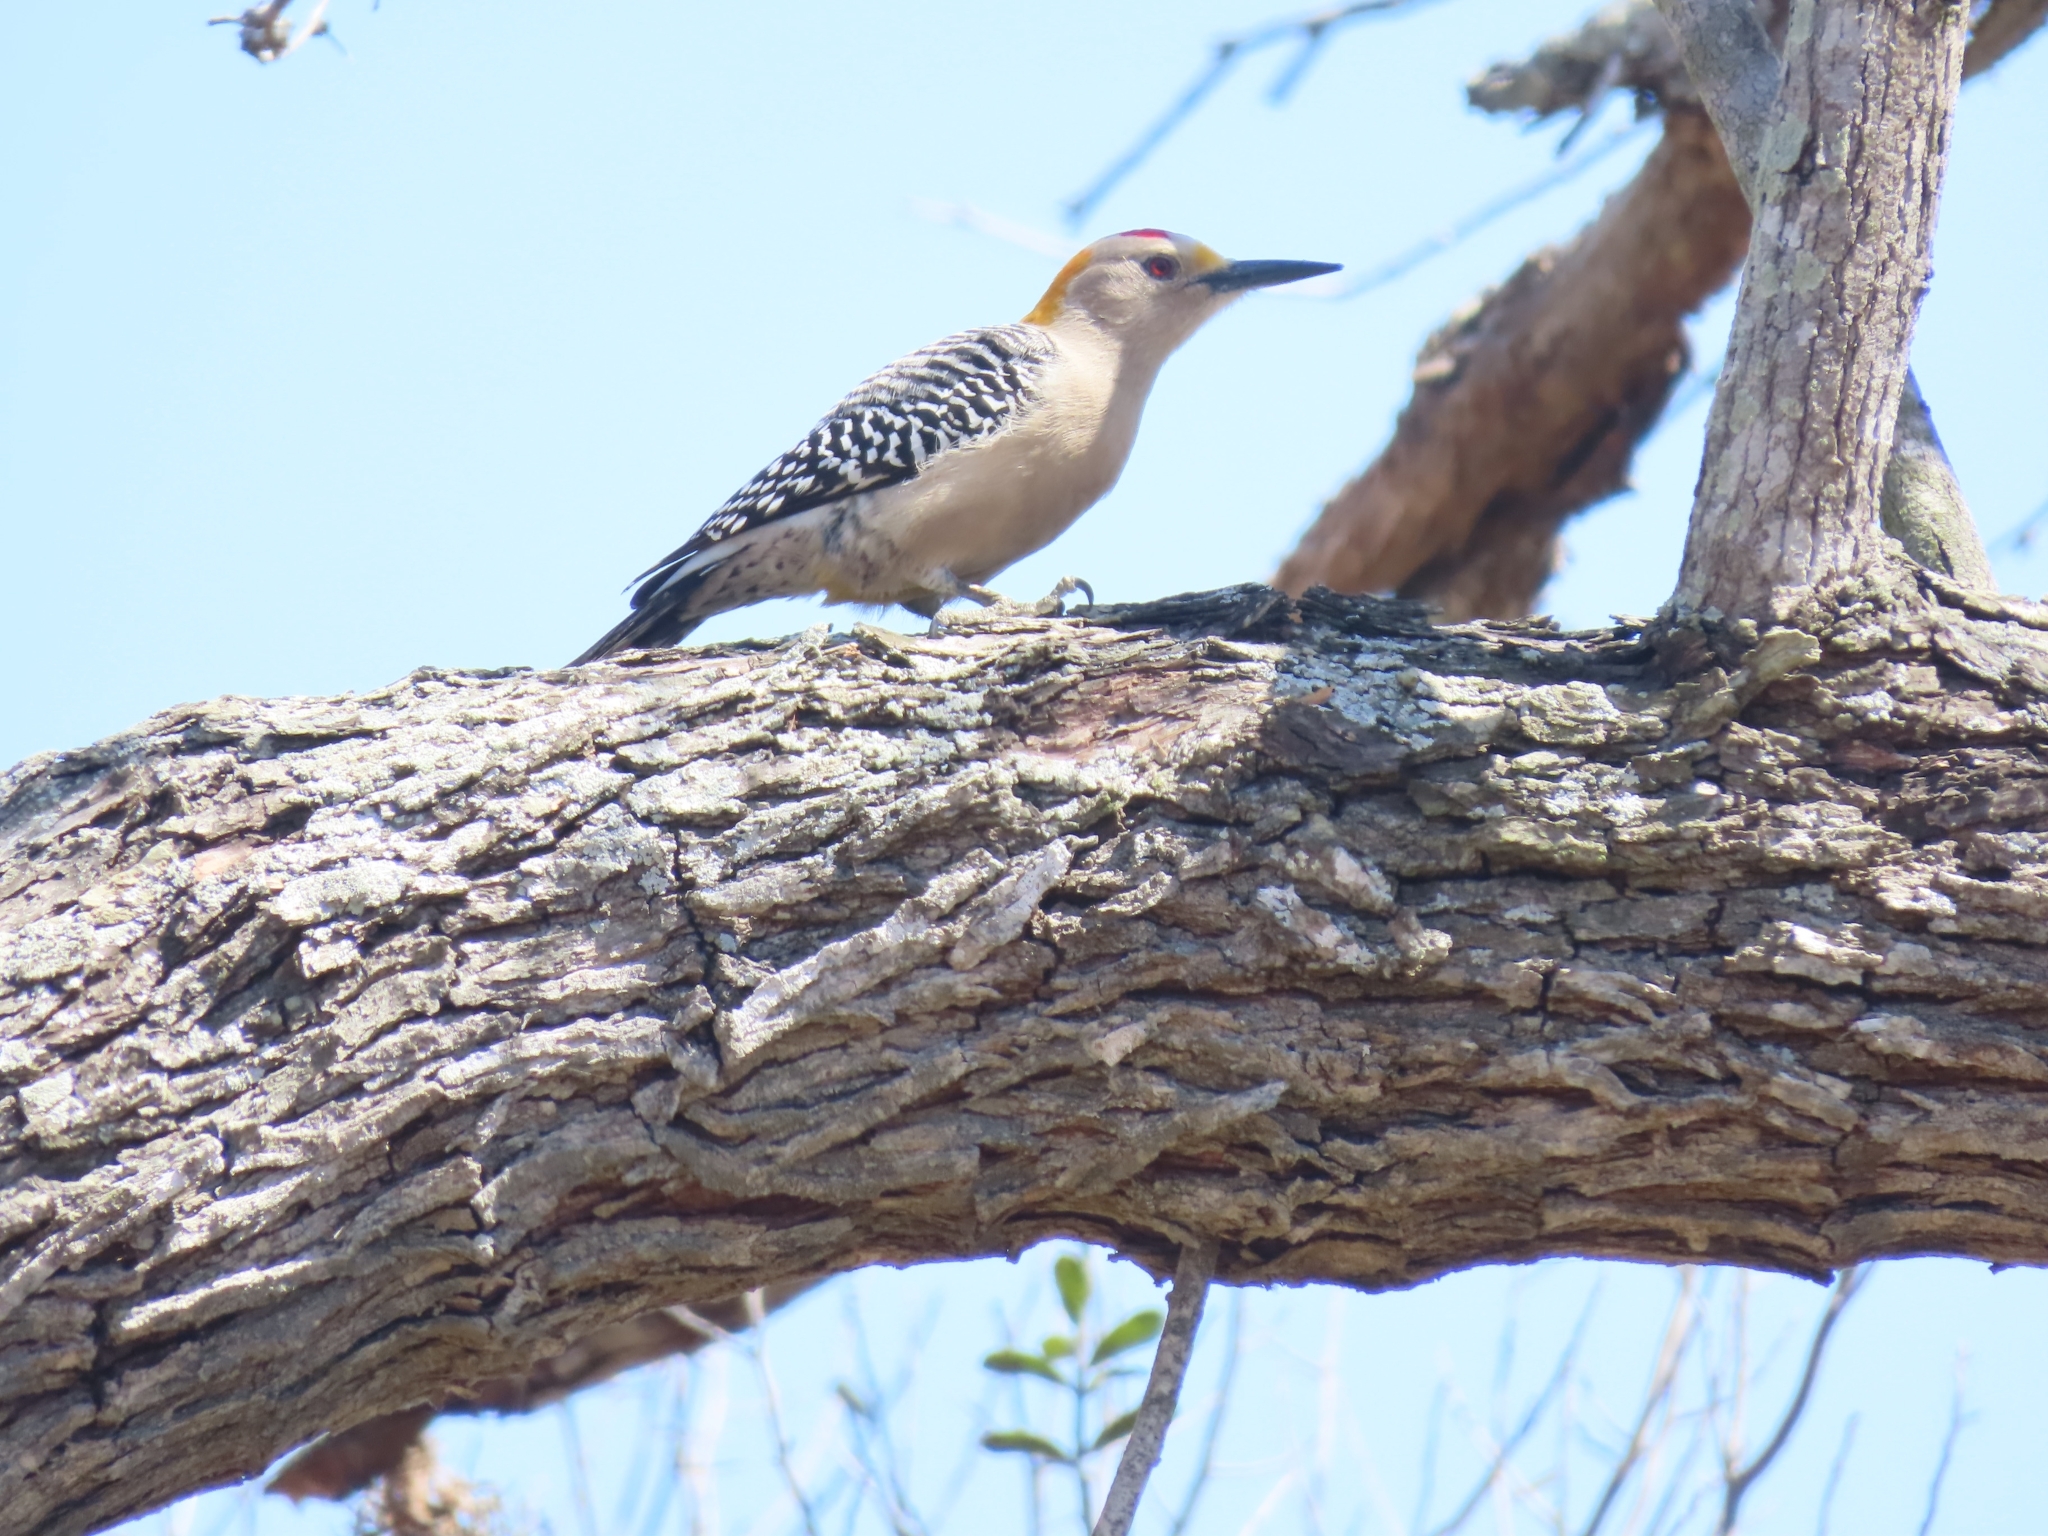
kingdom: Animalia
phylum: Chordata
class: Aves
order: Piciformes
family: Picidae
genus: Melanerpes
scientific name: Melanerpes aurifrons
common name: Golden-fronted woodpecker
